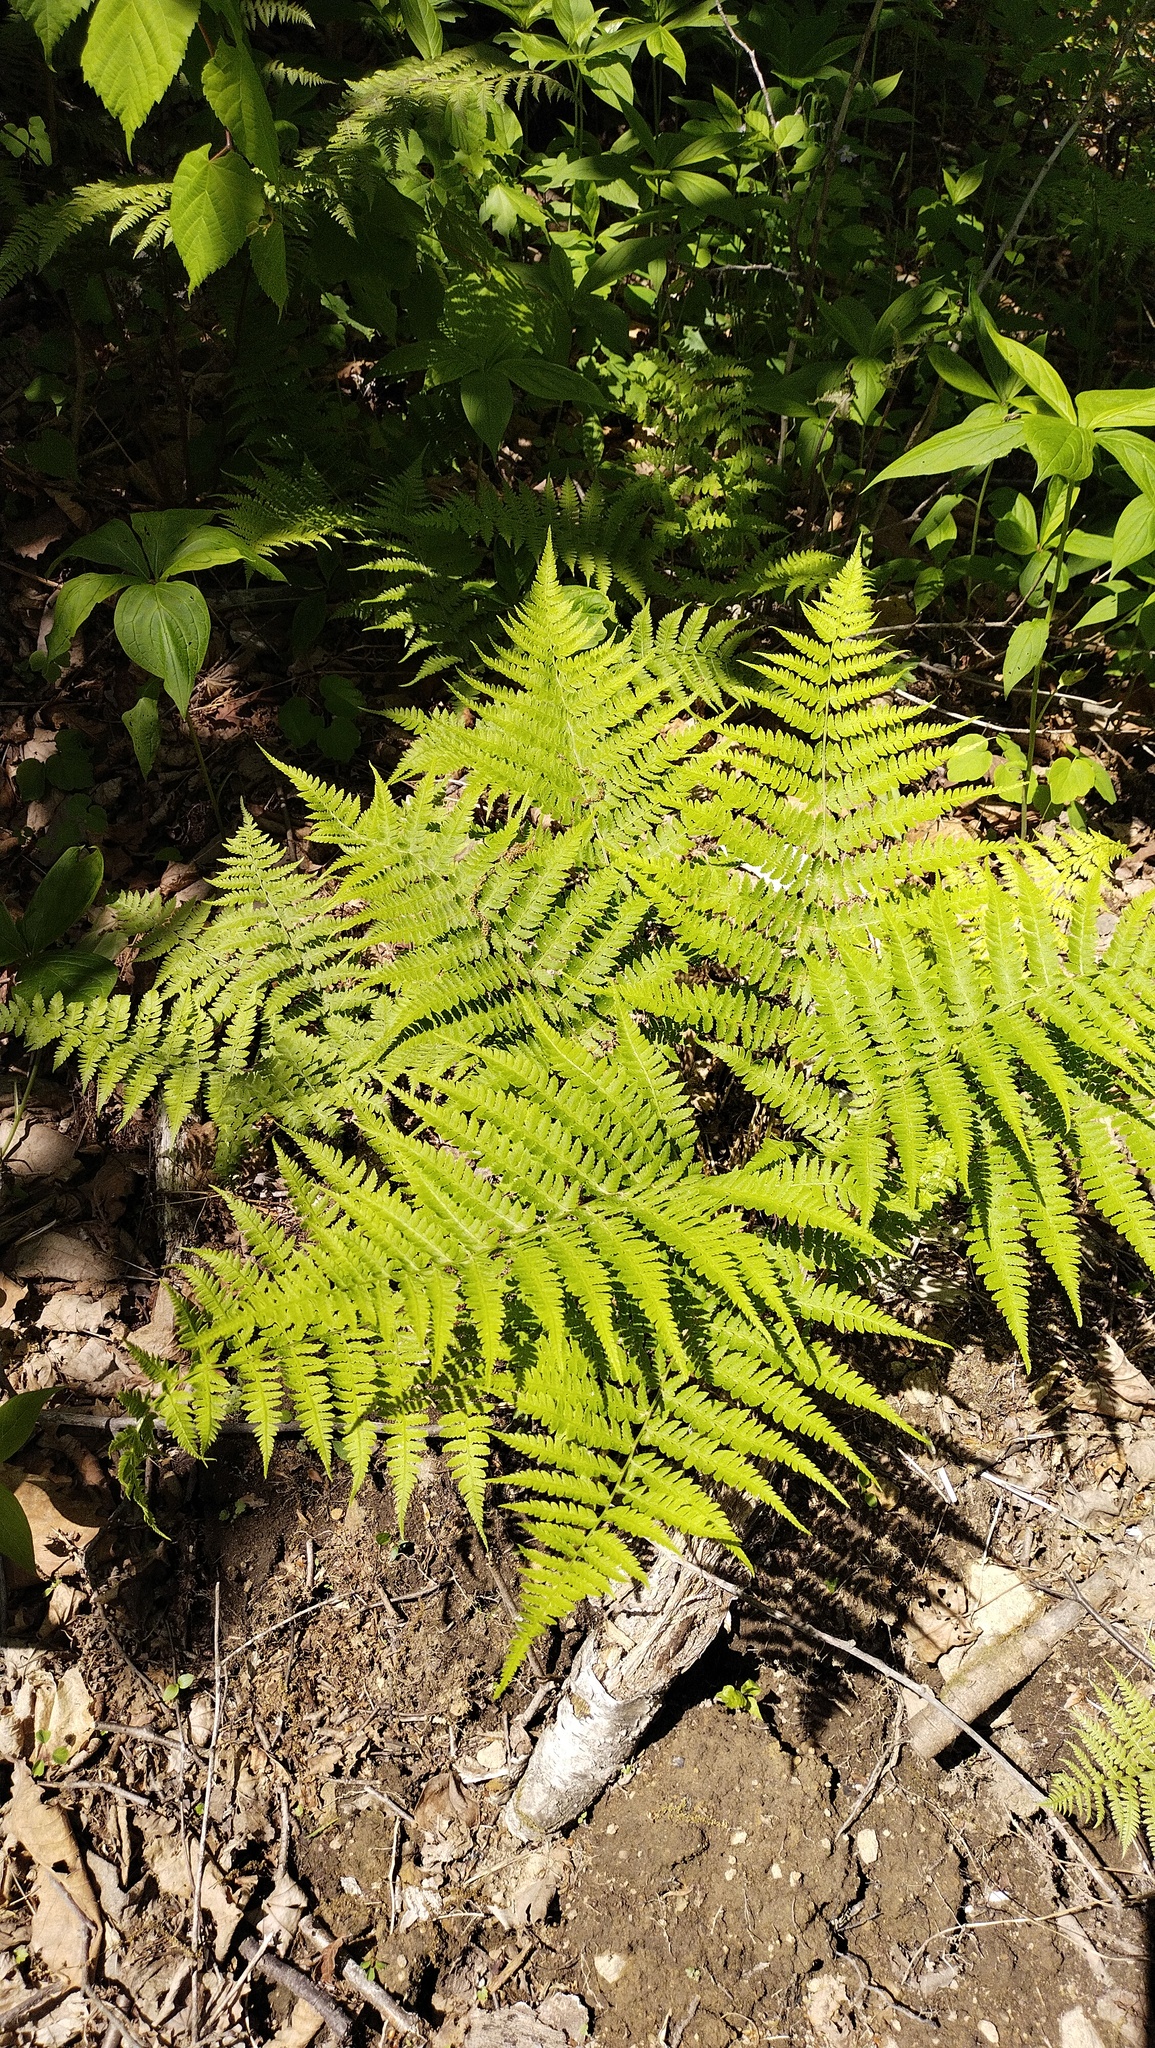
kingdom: Plantae
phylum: Tracheophyta
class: Polypodiopsida
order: Polypodiales
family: Athyriaceae
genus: Athyrium
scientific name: Athyrium yokoscense
